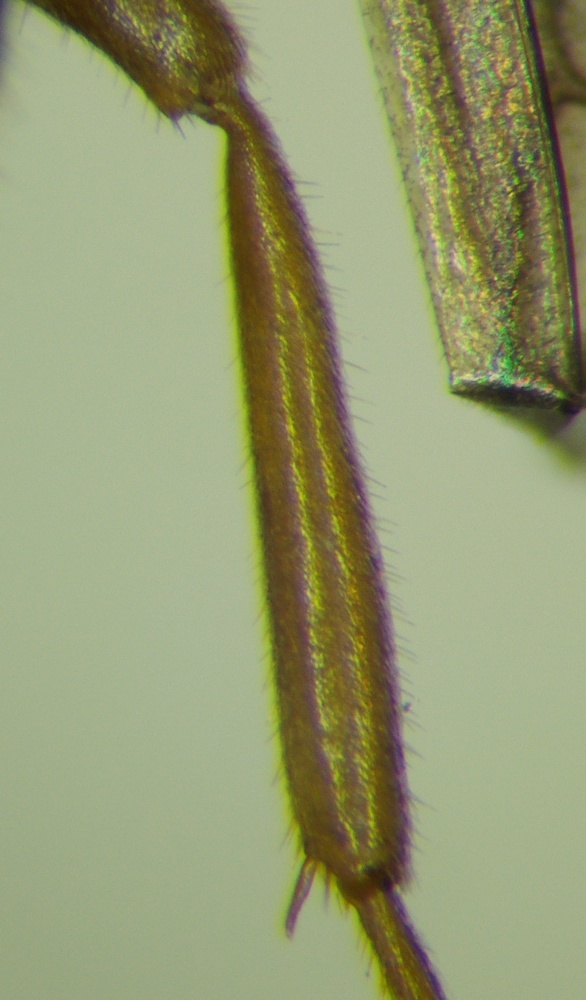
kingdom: Animalia
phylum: Arthropoda
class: Insecta
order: Hymenoptera
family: Formicidae
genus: Lasius
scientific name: Lasius umbratus
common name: Yellow shadow ant
